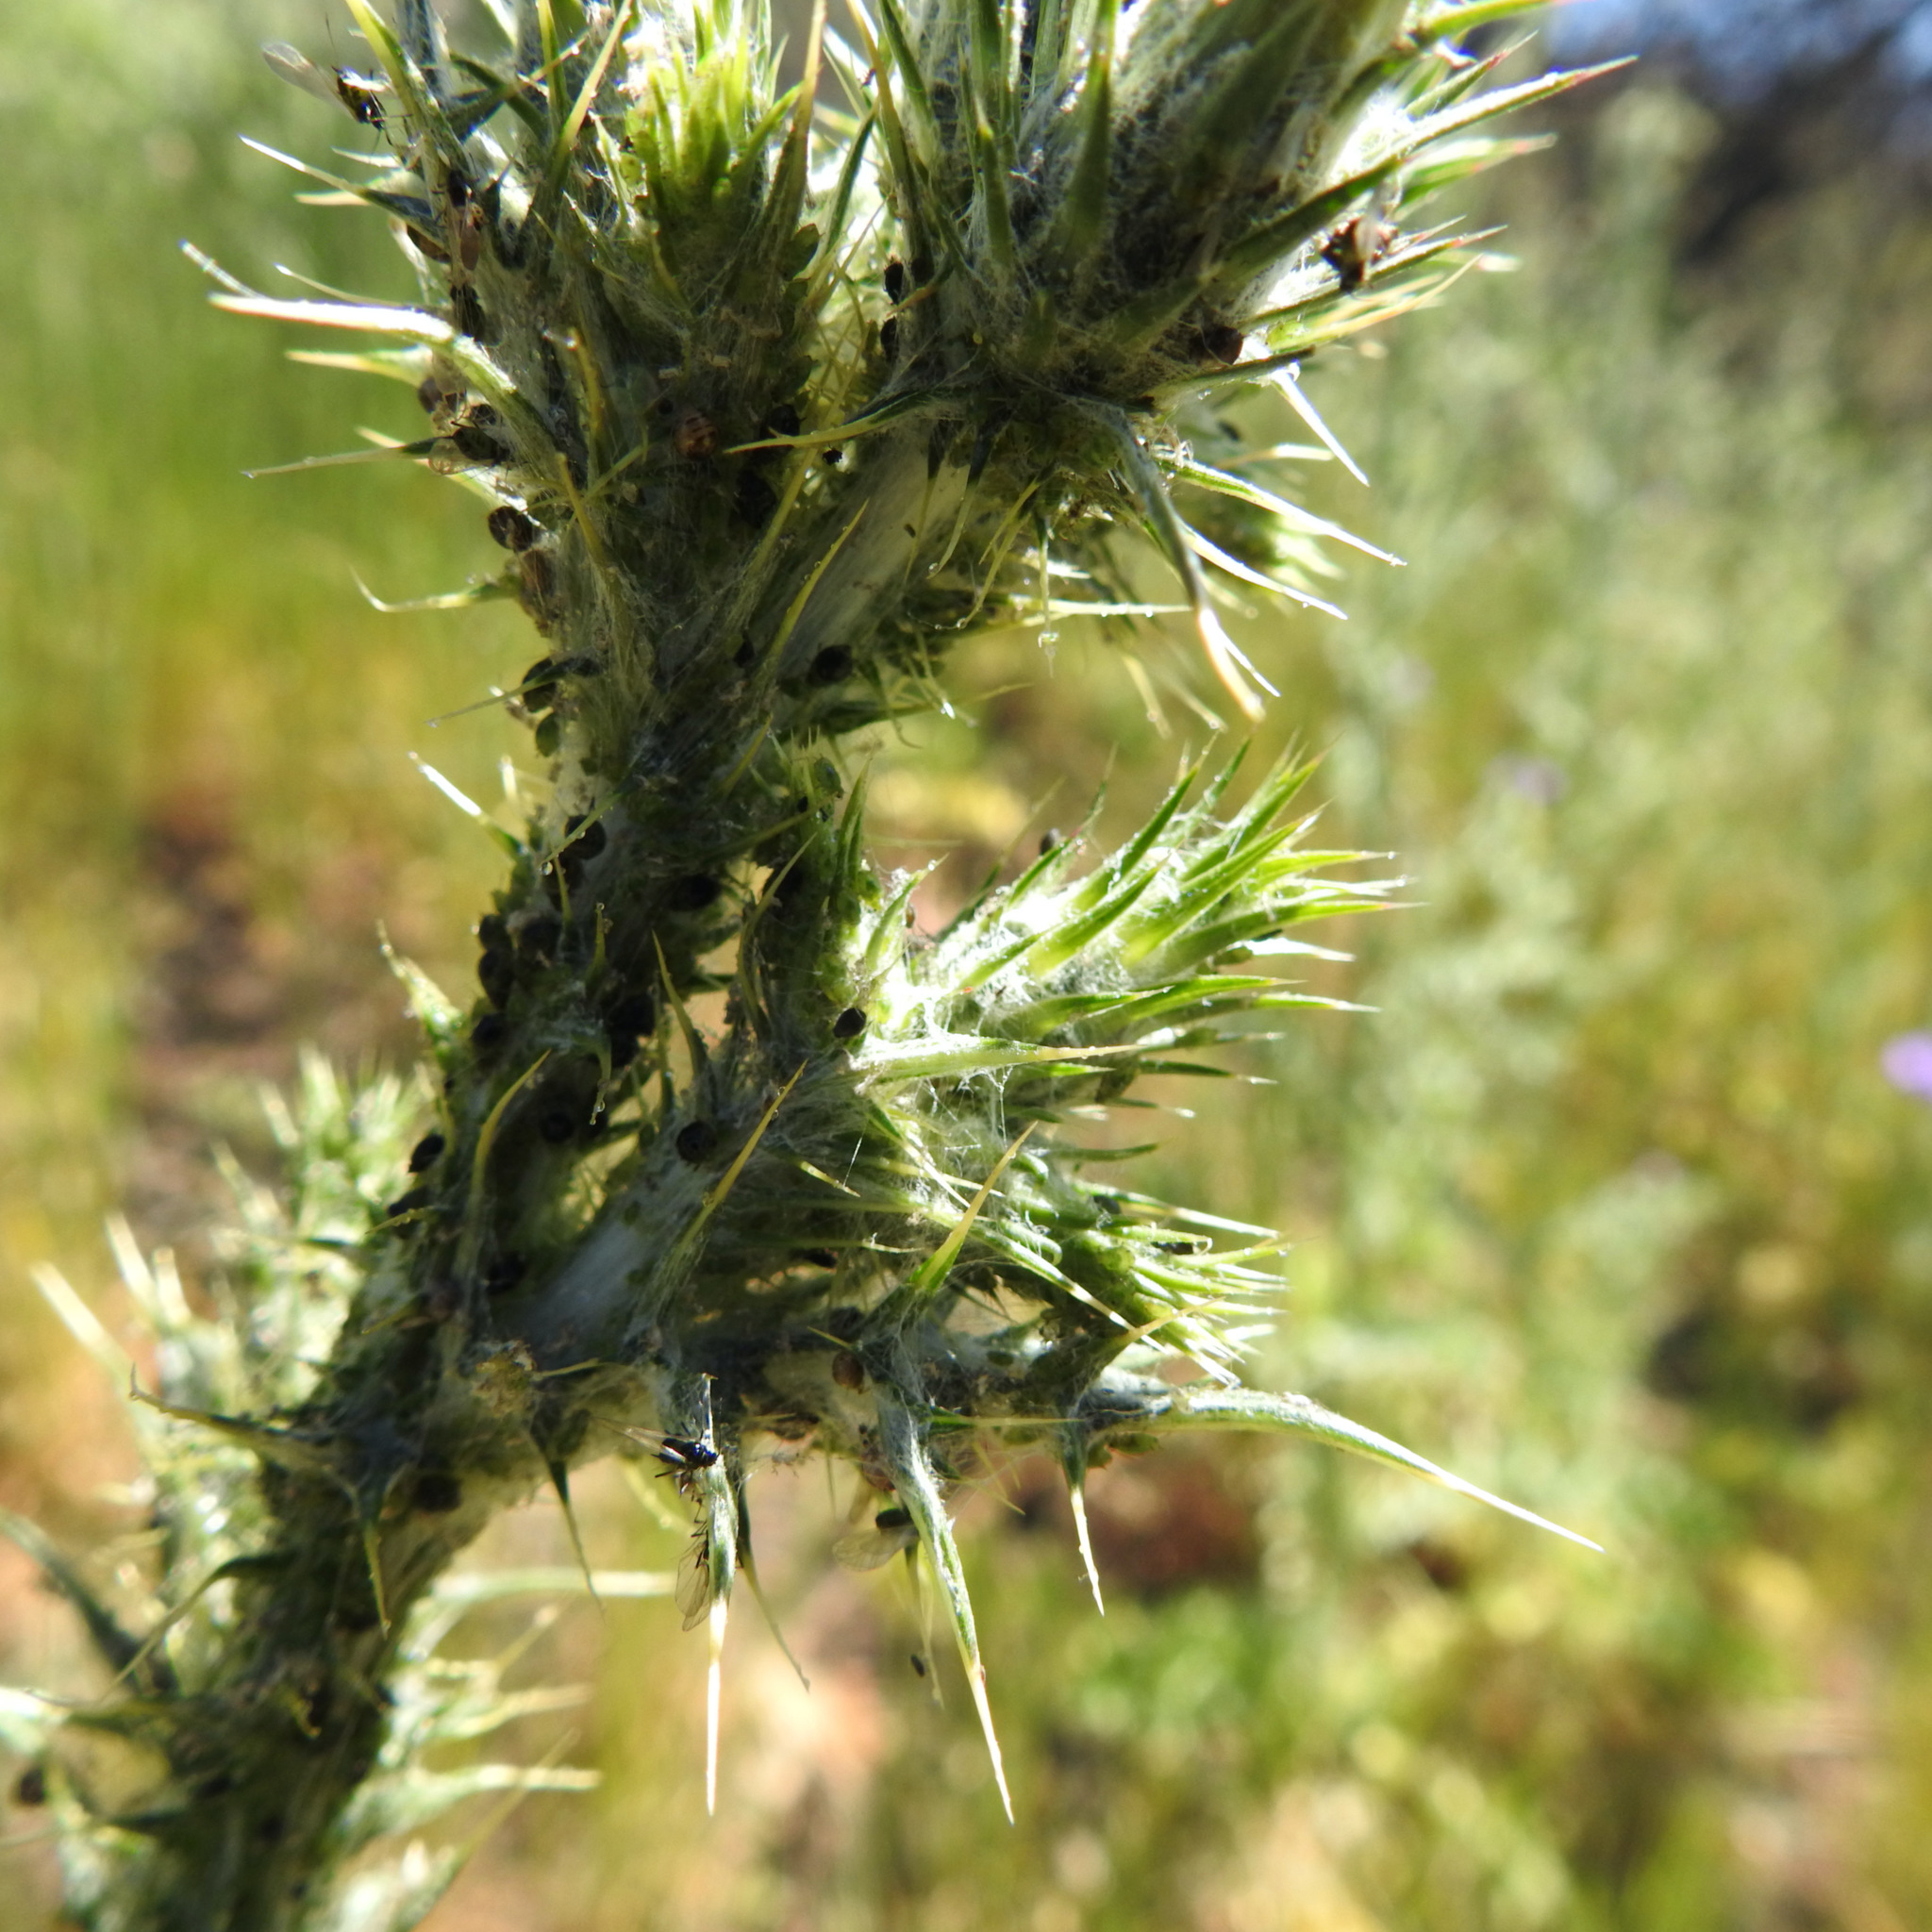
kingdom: Plantae
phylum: Tracheophyta
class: Magnoliopsida
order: Asterales
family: Asteraceae
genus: Carduus
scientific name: Carduus pycnocephalus
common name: Plymouth thistle
